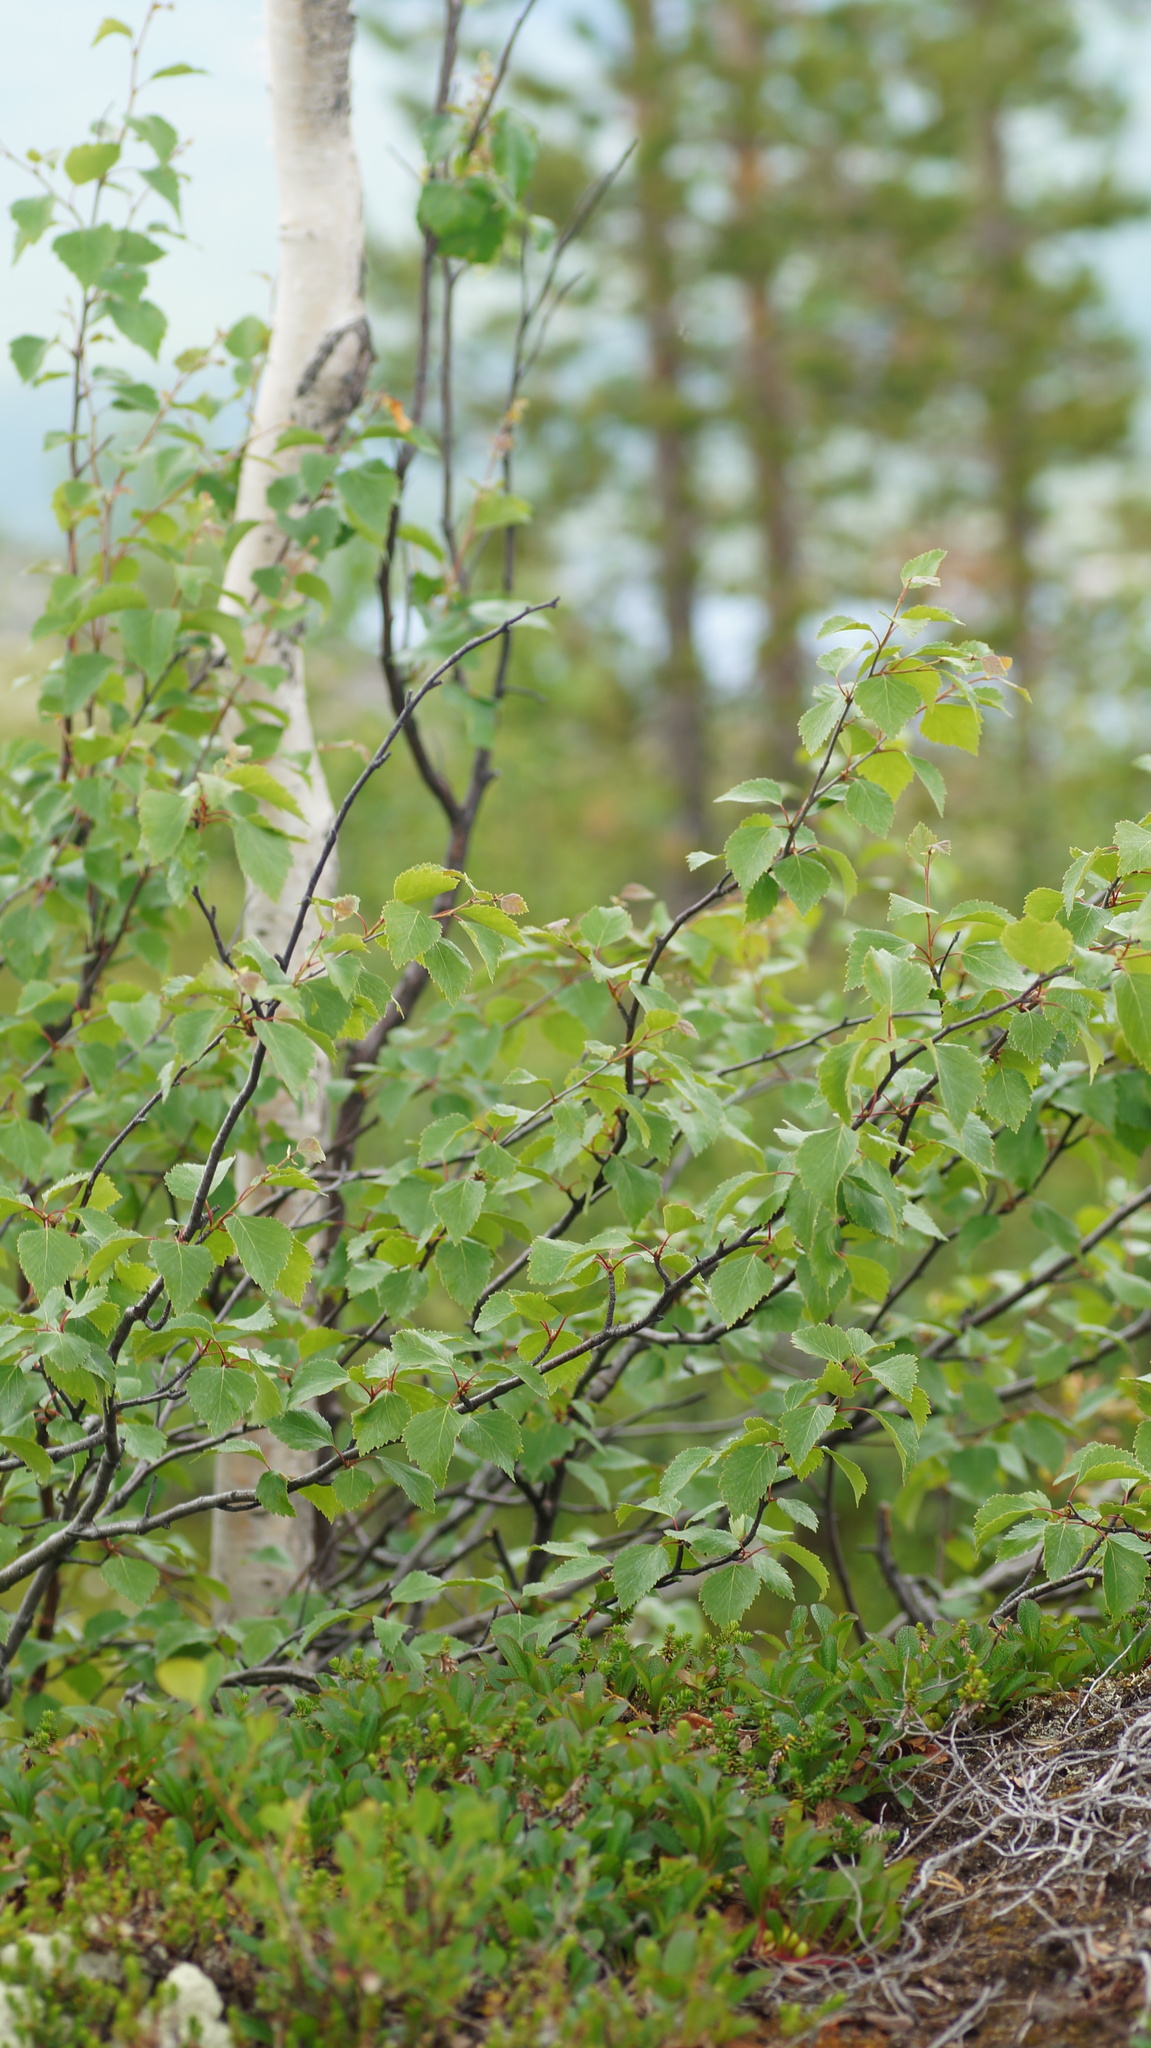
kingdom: Plantae
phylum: Tracheophyta
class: Magnoliopsida
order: Fagales
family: Betulaceae
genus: Betula
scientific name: Betula pubescens
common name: Downy birch
